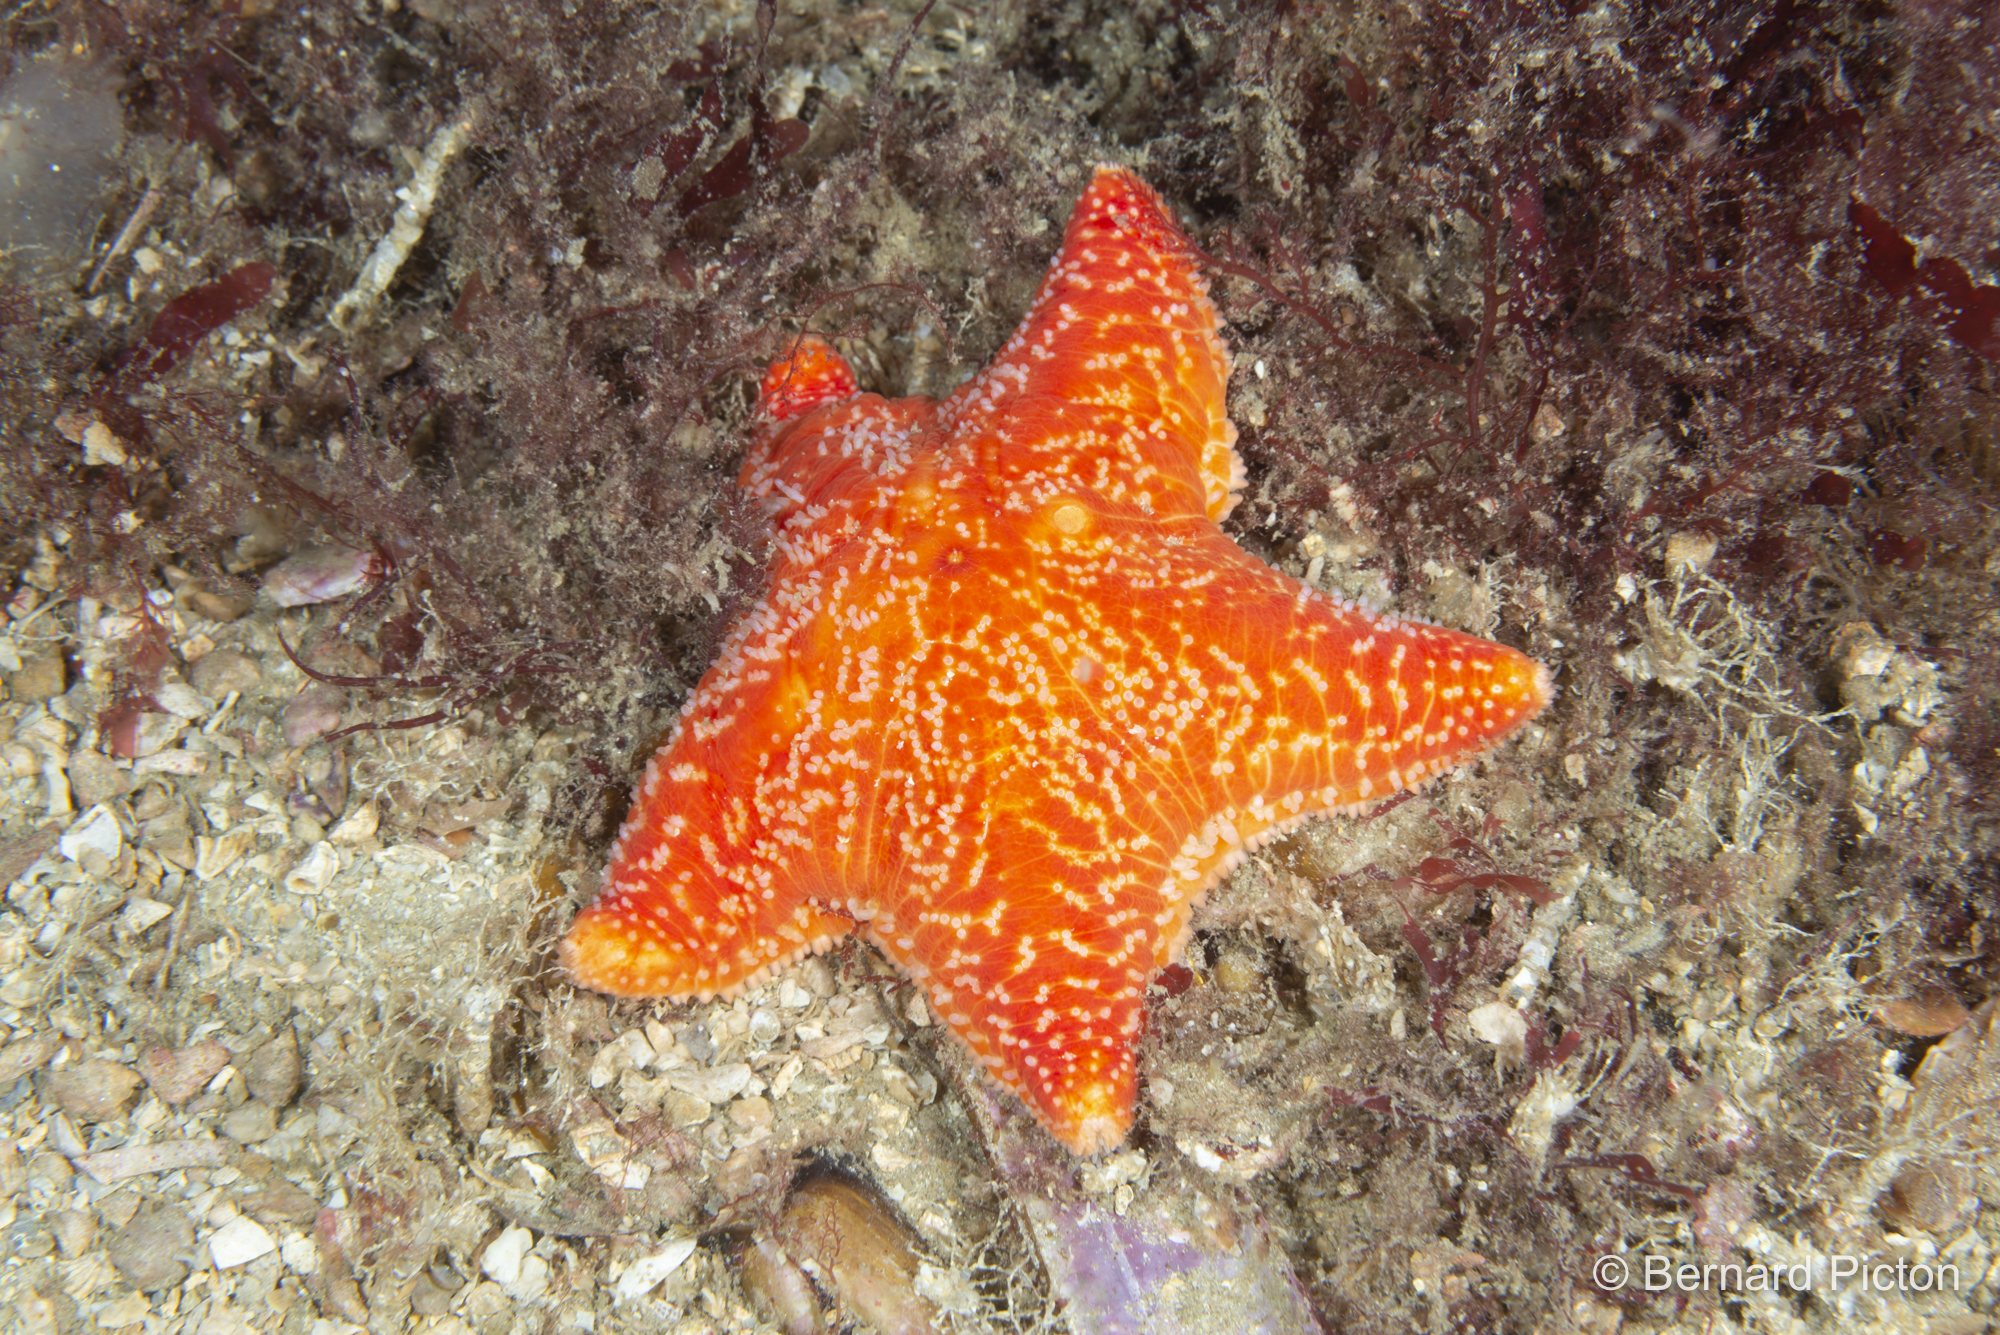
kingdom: Animalia
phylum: Echinodermata
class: Asteroidea
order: Valvatida
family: Poraniidae
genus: Porania
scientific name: Porania pulvillus
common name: Red cushion stat
